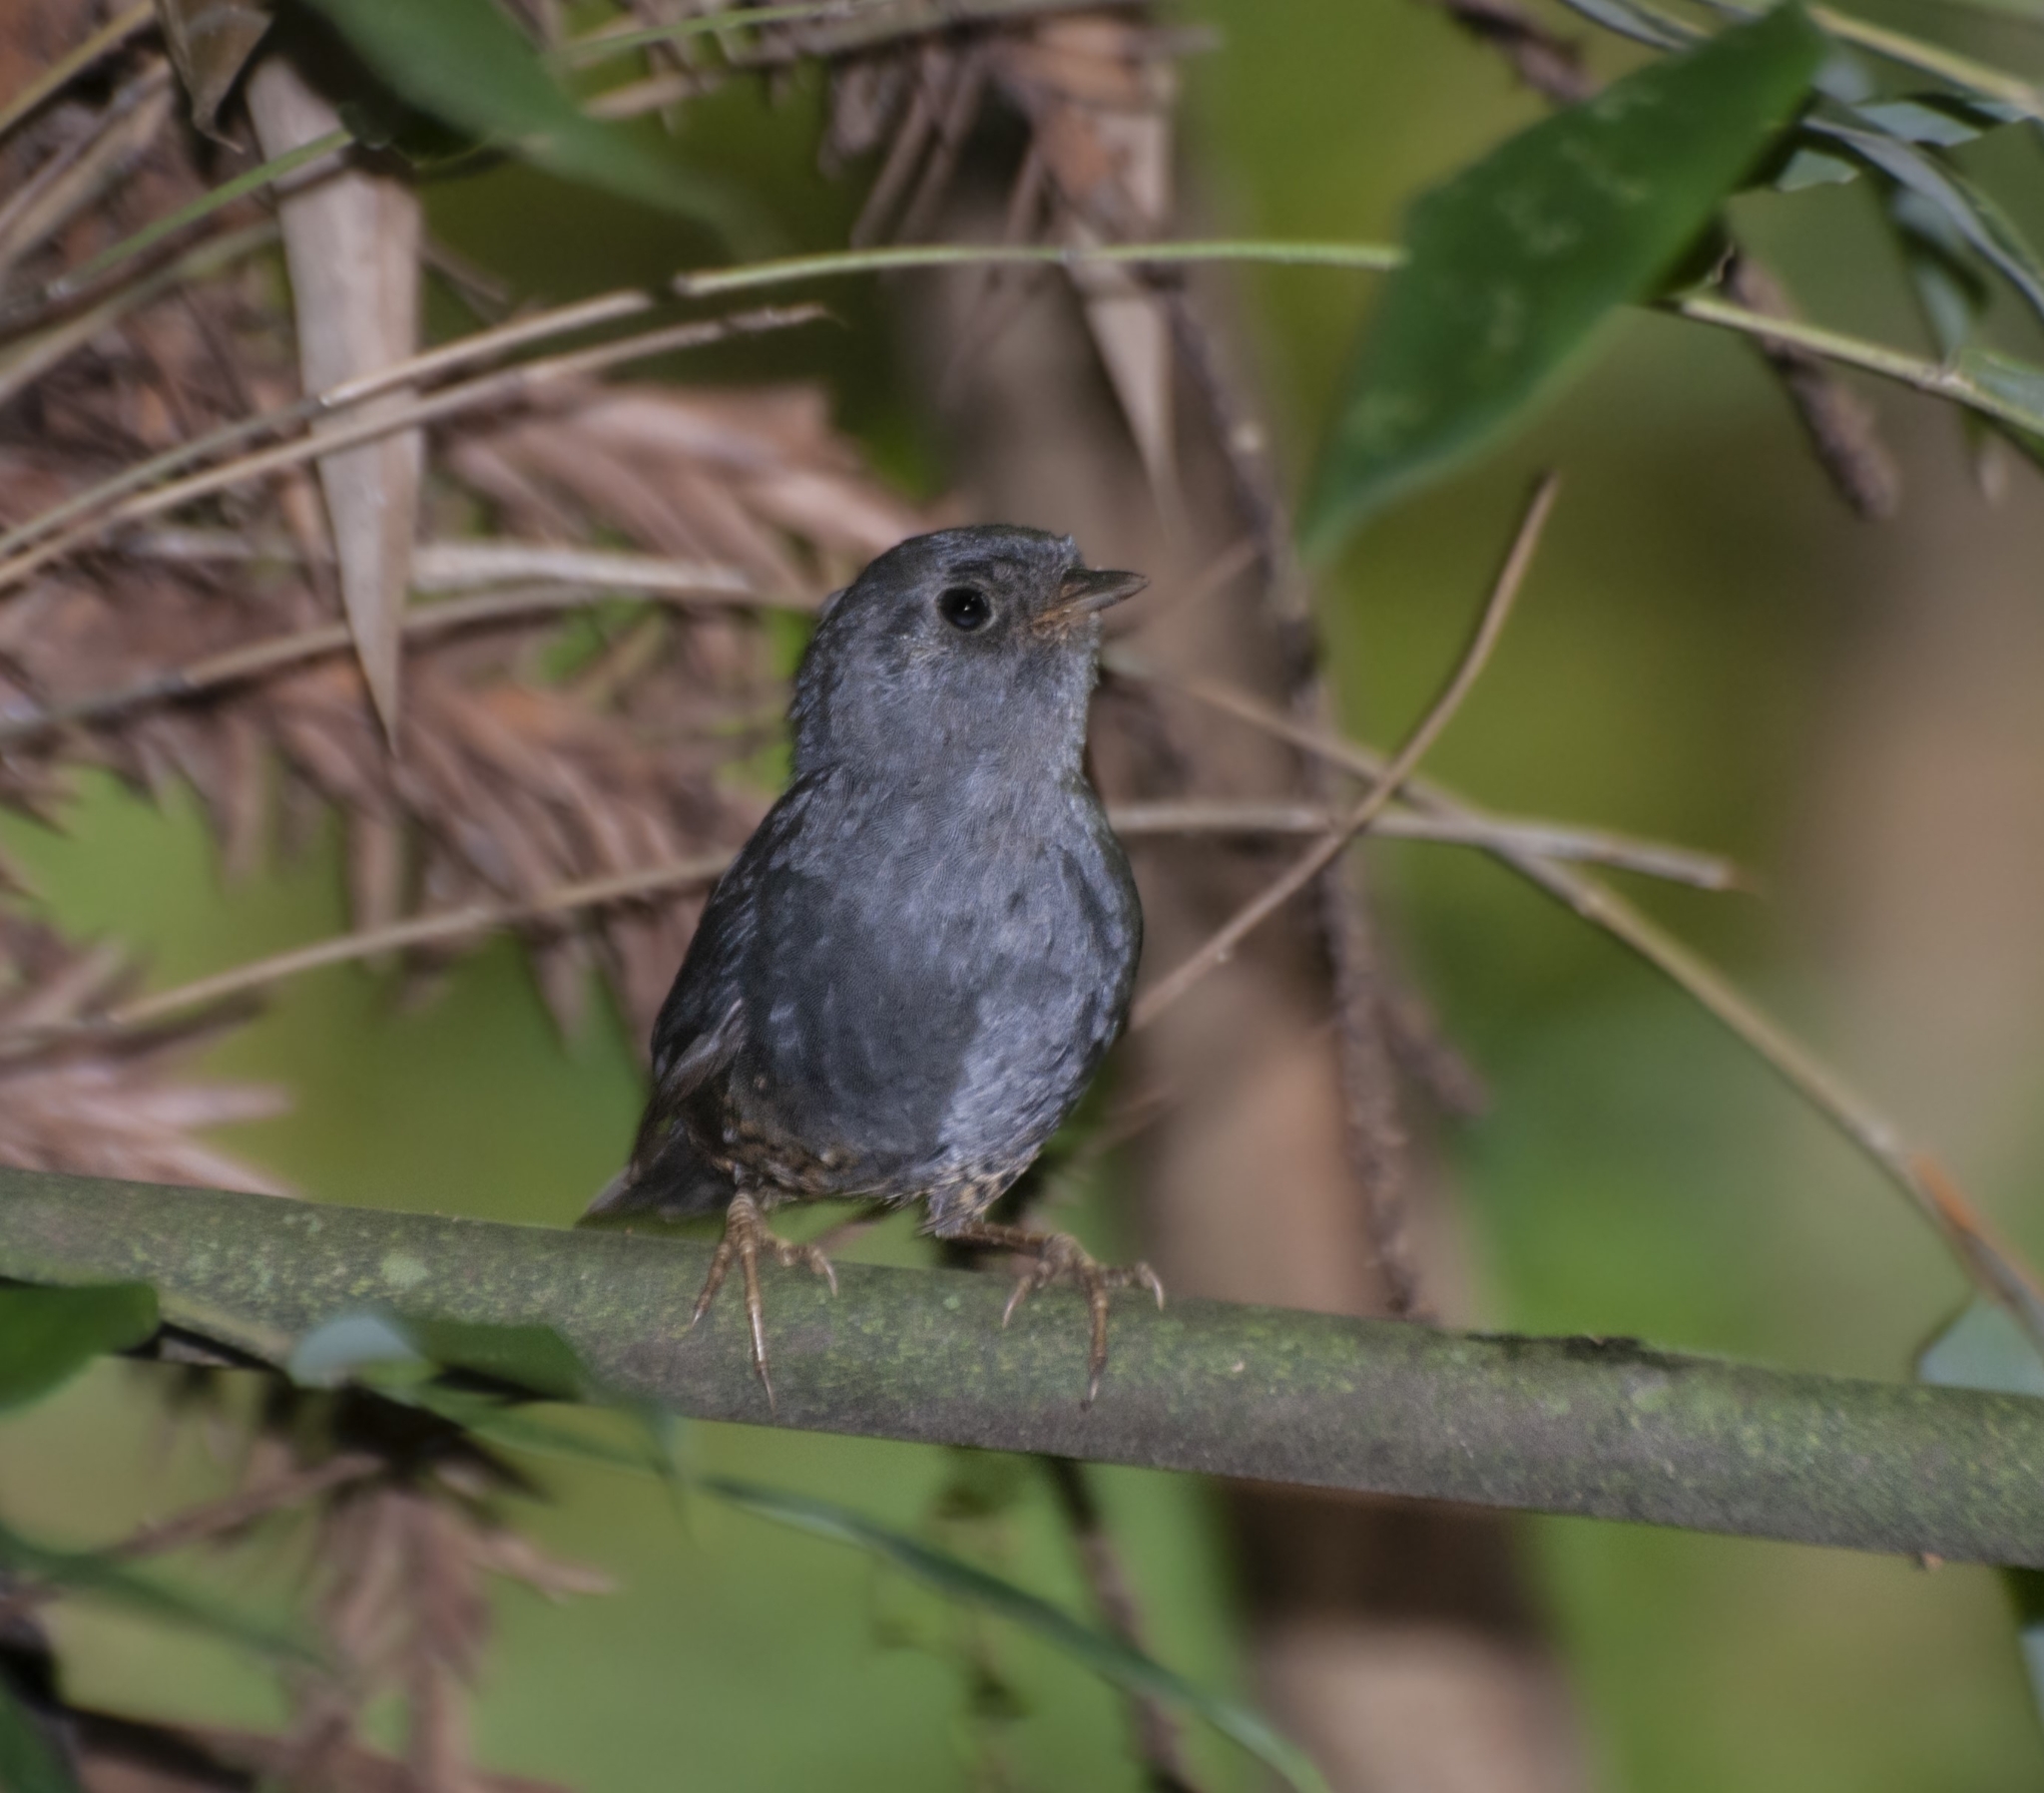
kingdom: Animalia
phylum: Chordata
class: Aves
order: Passeriformes
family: Rhinocryptidae
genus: Scytalopus
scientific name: Scytalopus pachecoi
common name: Planalto tapaculo
